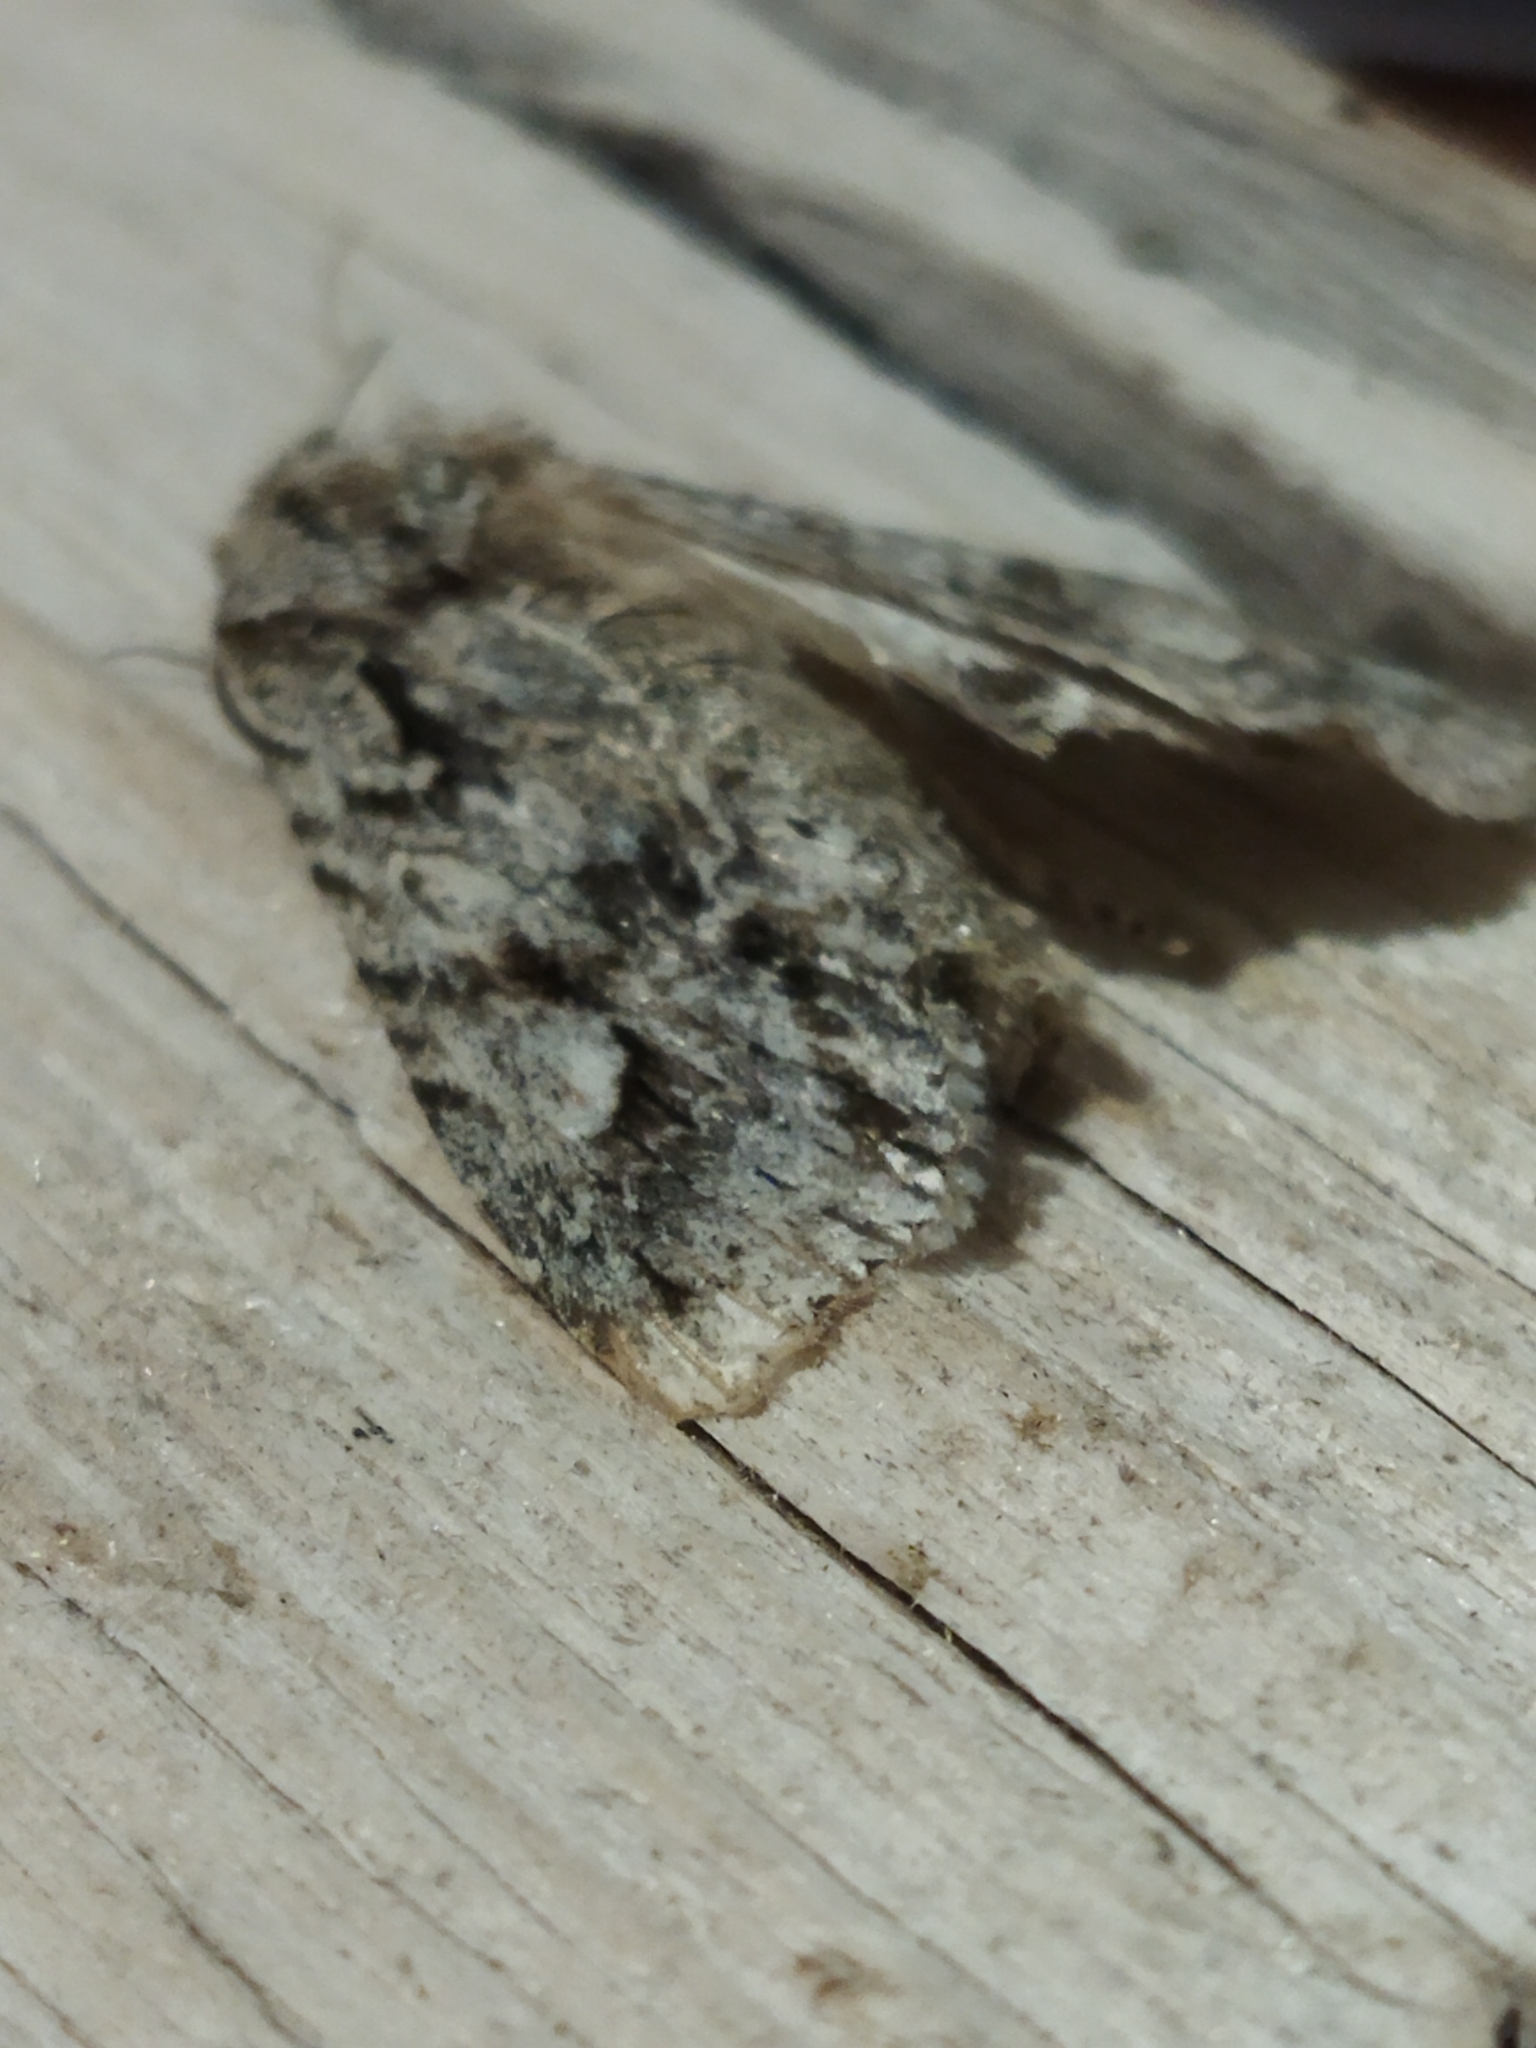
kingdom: Animalia
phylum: Arthropoda
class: Insecta
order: Lepidoptera
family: Noctuidae
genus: Meganephria
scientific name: Meganephria bimaculosa
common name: Double-spot brocade
